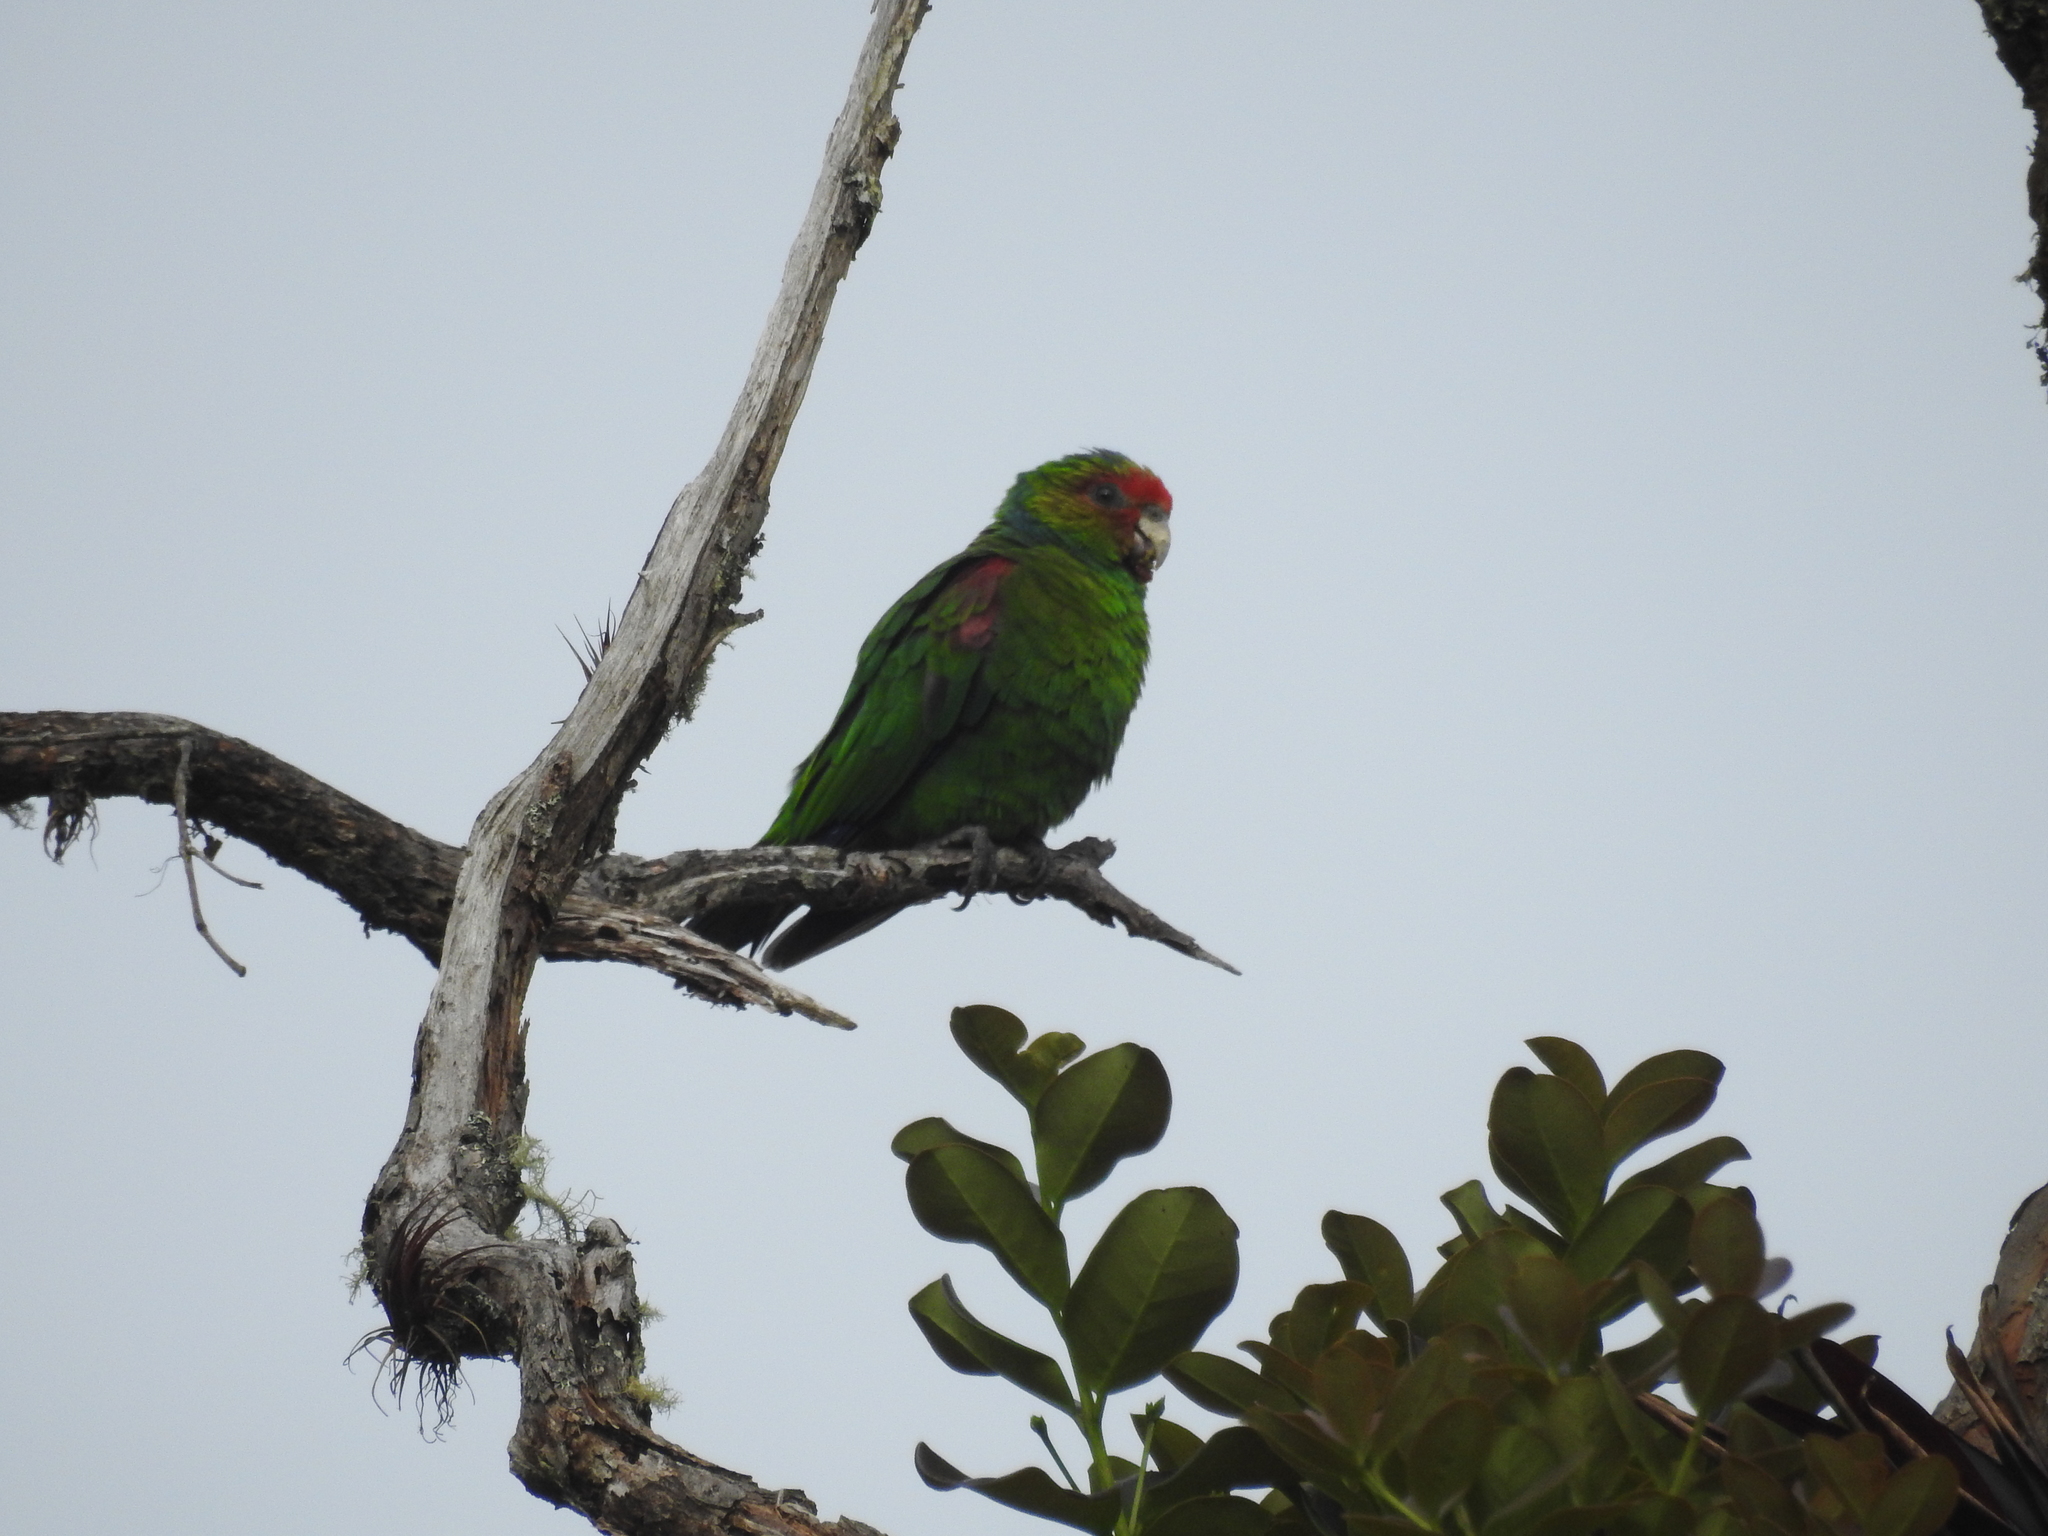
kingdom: Animalia
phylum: Chordata
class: Aves
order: Psittaciformes
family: Psittacidae
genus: Hapalopsittaca
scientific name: Hapalopsittaca pyrrhops
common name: Red-faced parrot
